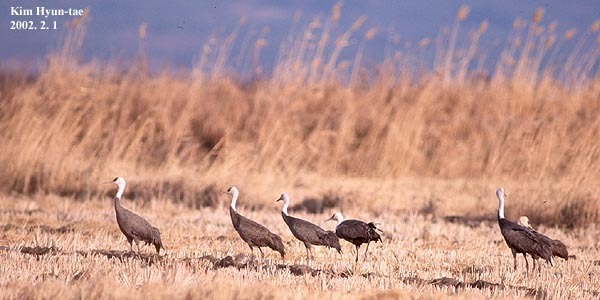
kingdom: Animalia
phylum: Chordata
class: Aves
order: Gruiformes
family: Gruidae
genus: Grus
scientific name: Grus monacha
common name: Hooded crane
